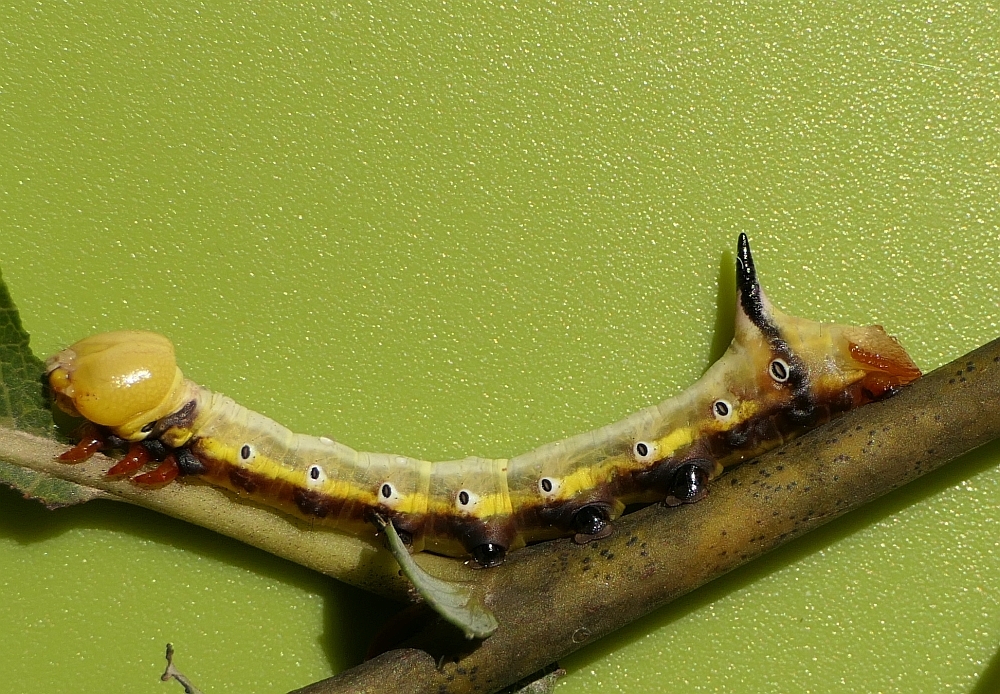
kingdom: Animalia
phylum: Arthropoda
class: Insecta
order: Lepidoptera
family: Notodontidae
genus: Pheosia
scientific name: Pheosia rimosa
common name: Black-rimmed prominent
